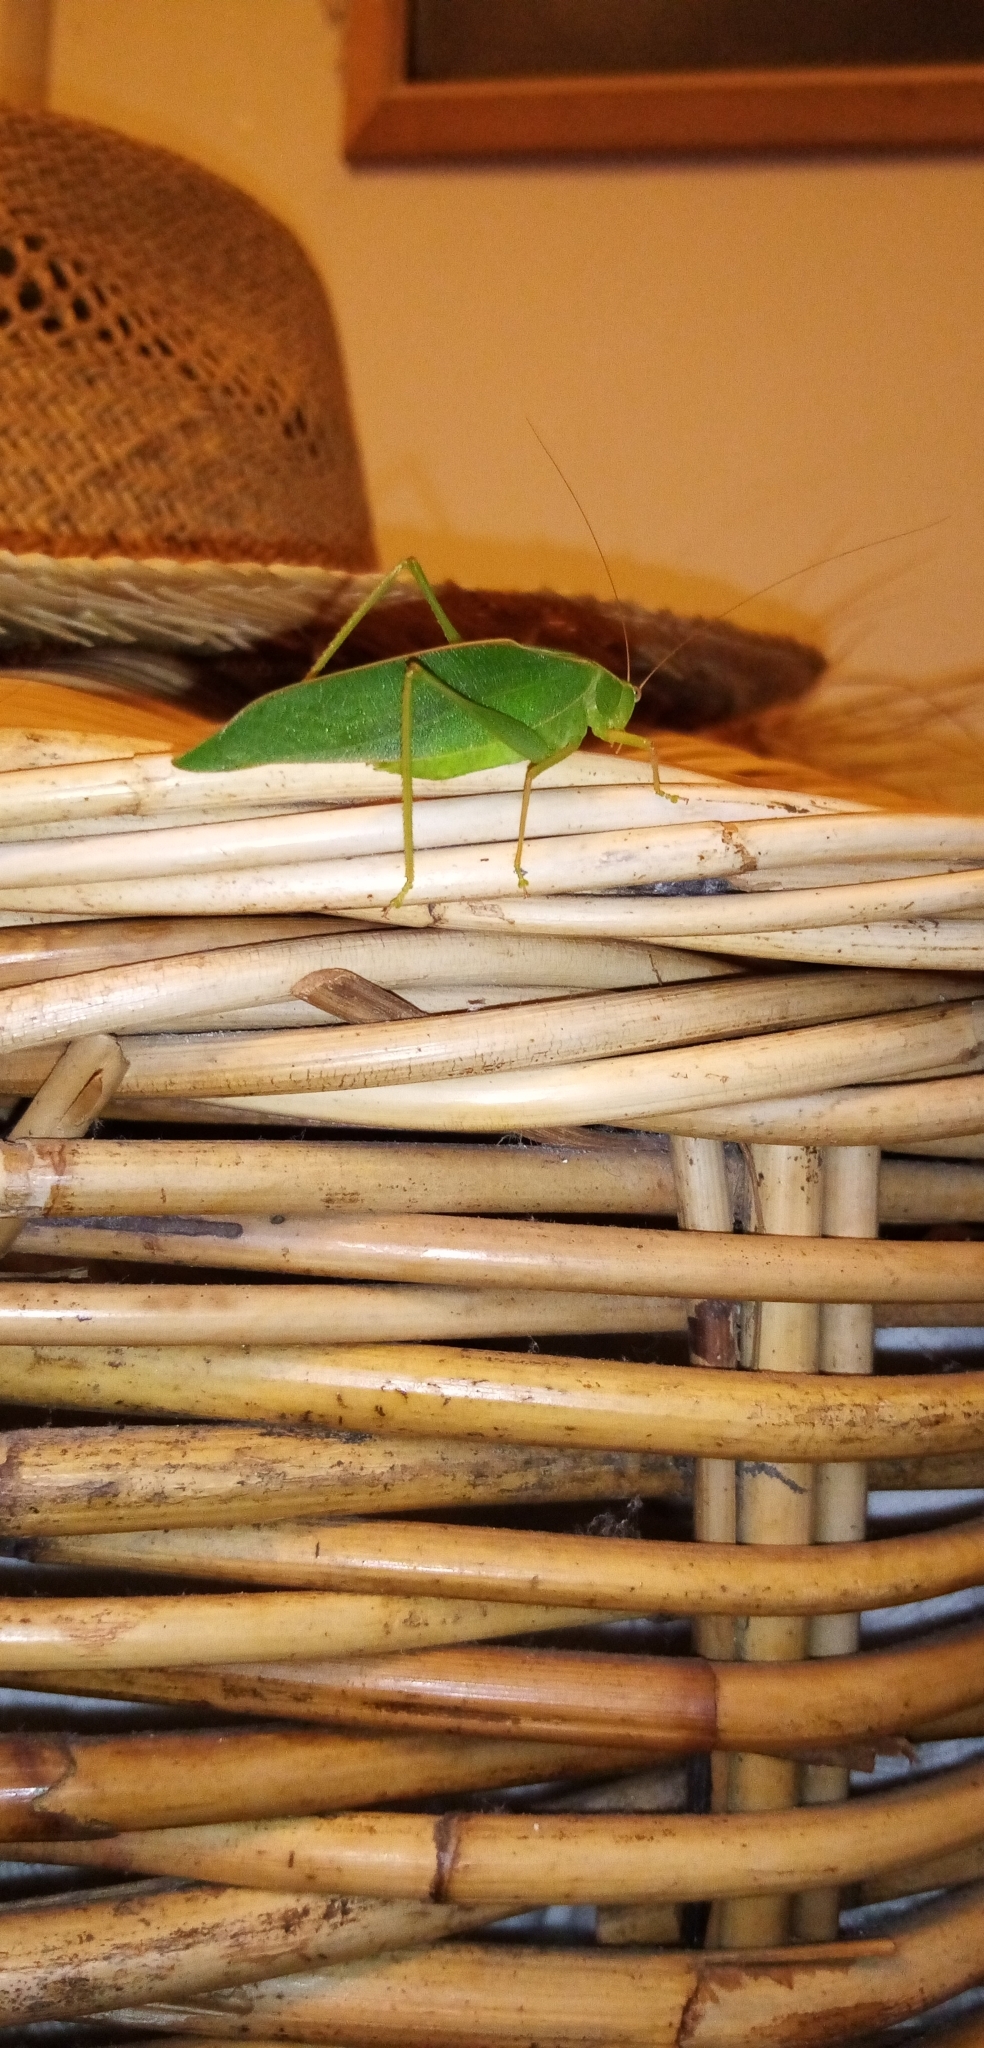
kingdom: Animalia
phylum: Arthropoda
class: Insecta
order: Orthoptera
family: Tettigoniidae
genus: Caedicia
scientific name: Caedicia simplex
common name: Common garden katydid
